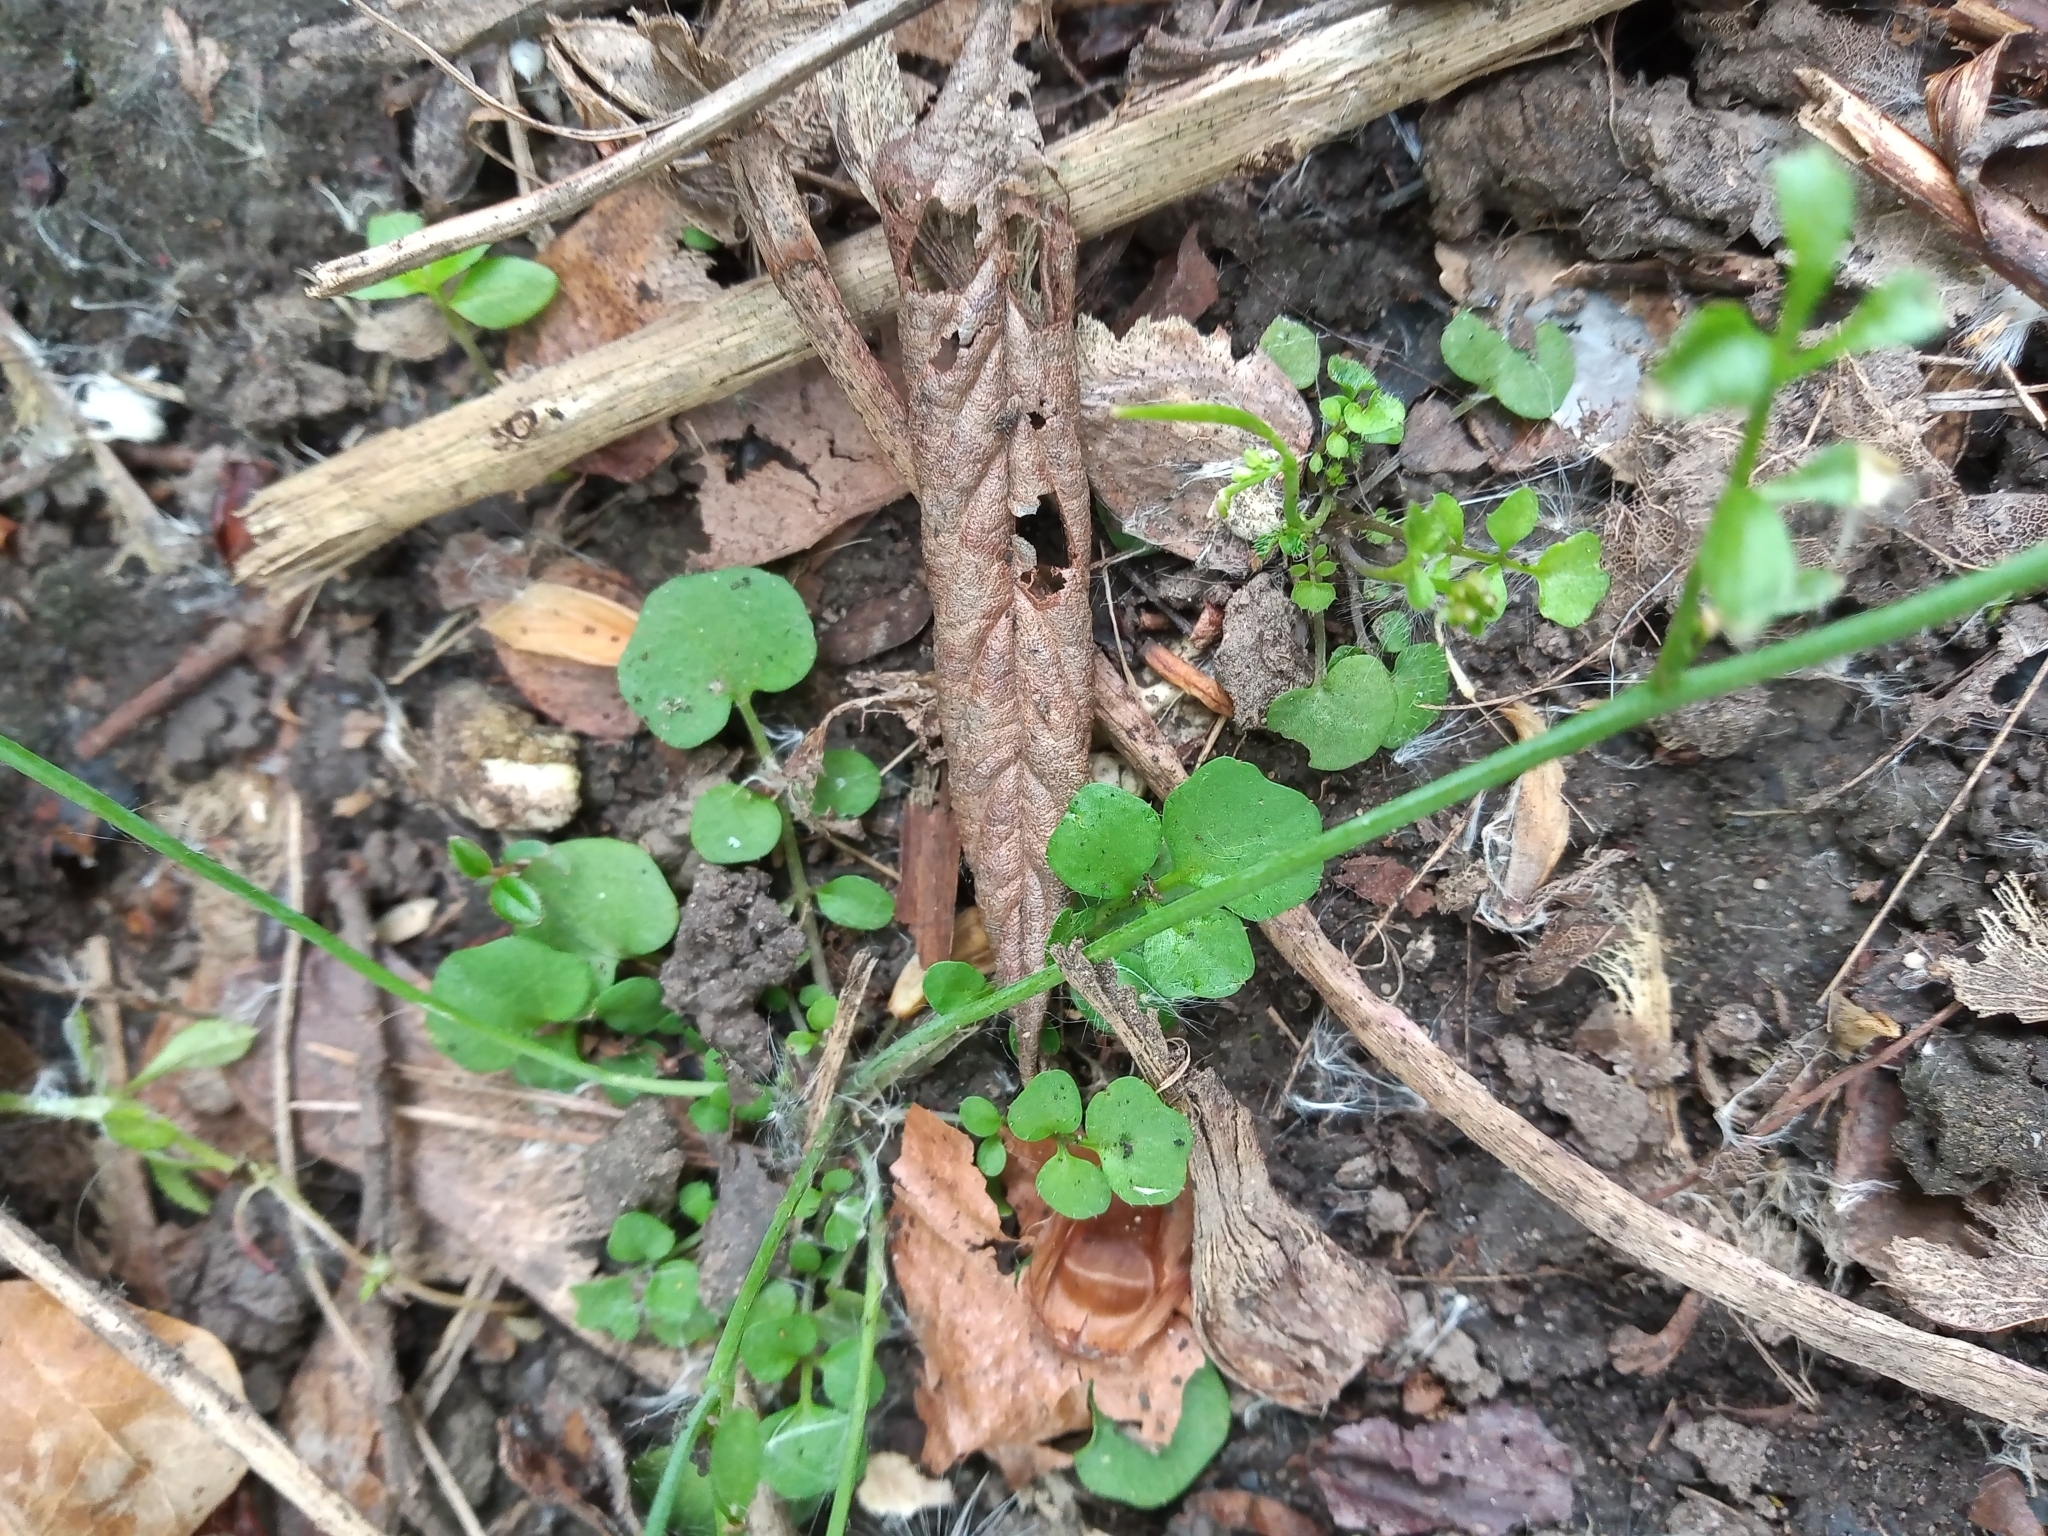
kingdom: Plantae
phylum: Tracheophyta
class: Magnoliopsida
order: Brassicales
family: Brassicaceae
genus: Cardamine
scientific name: Cardamine hirsuta
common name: Hairy bittercress
